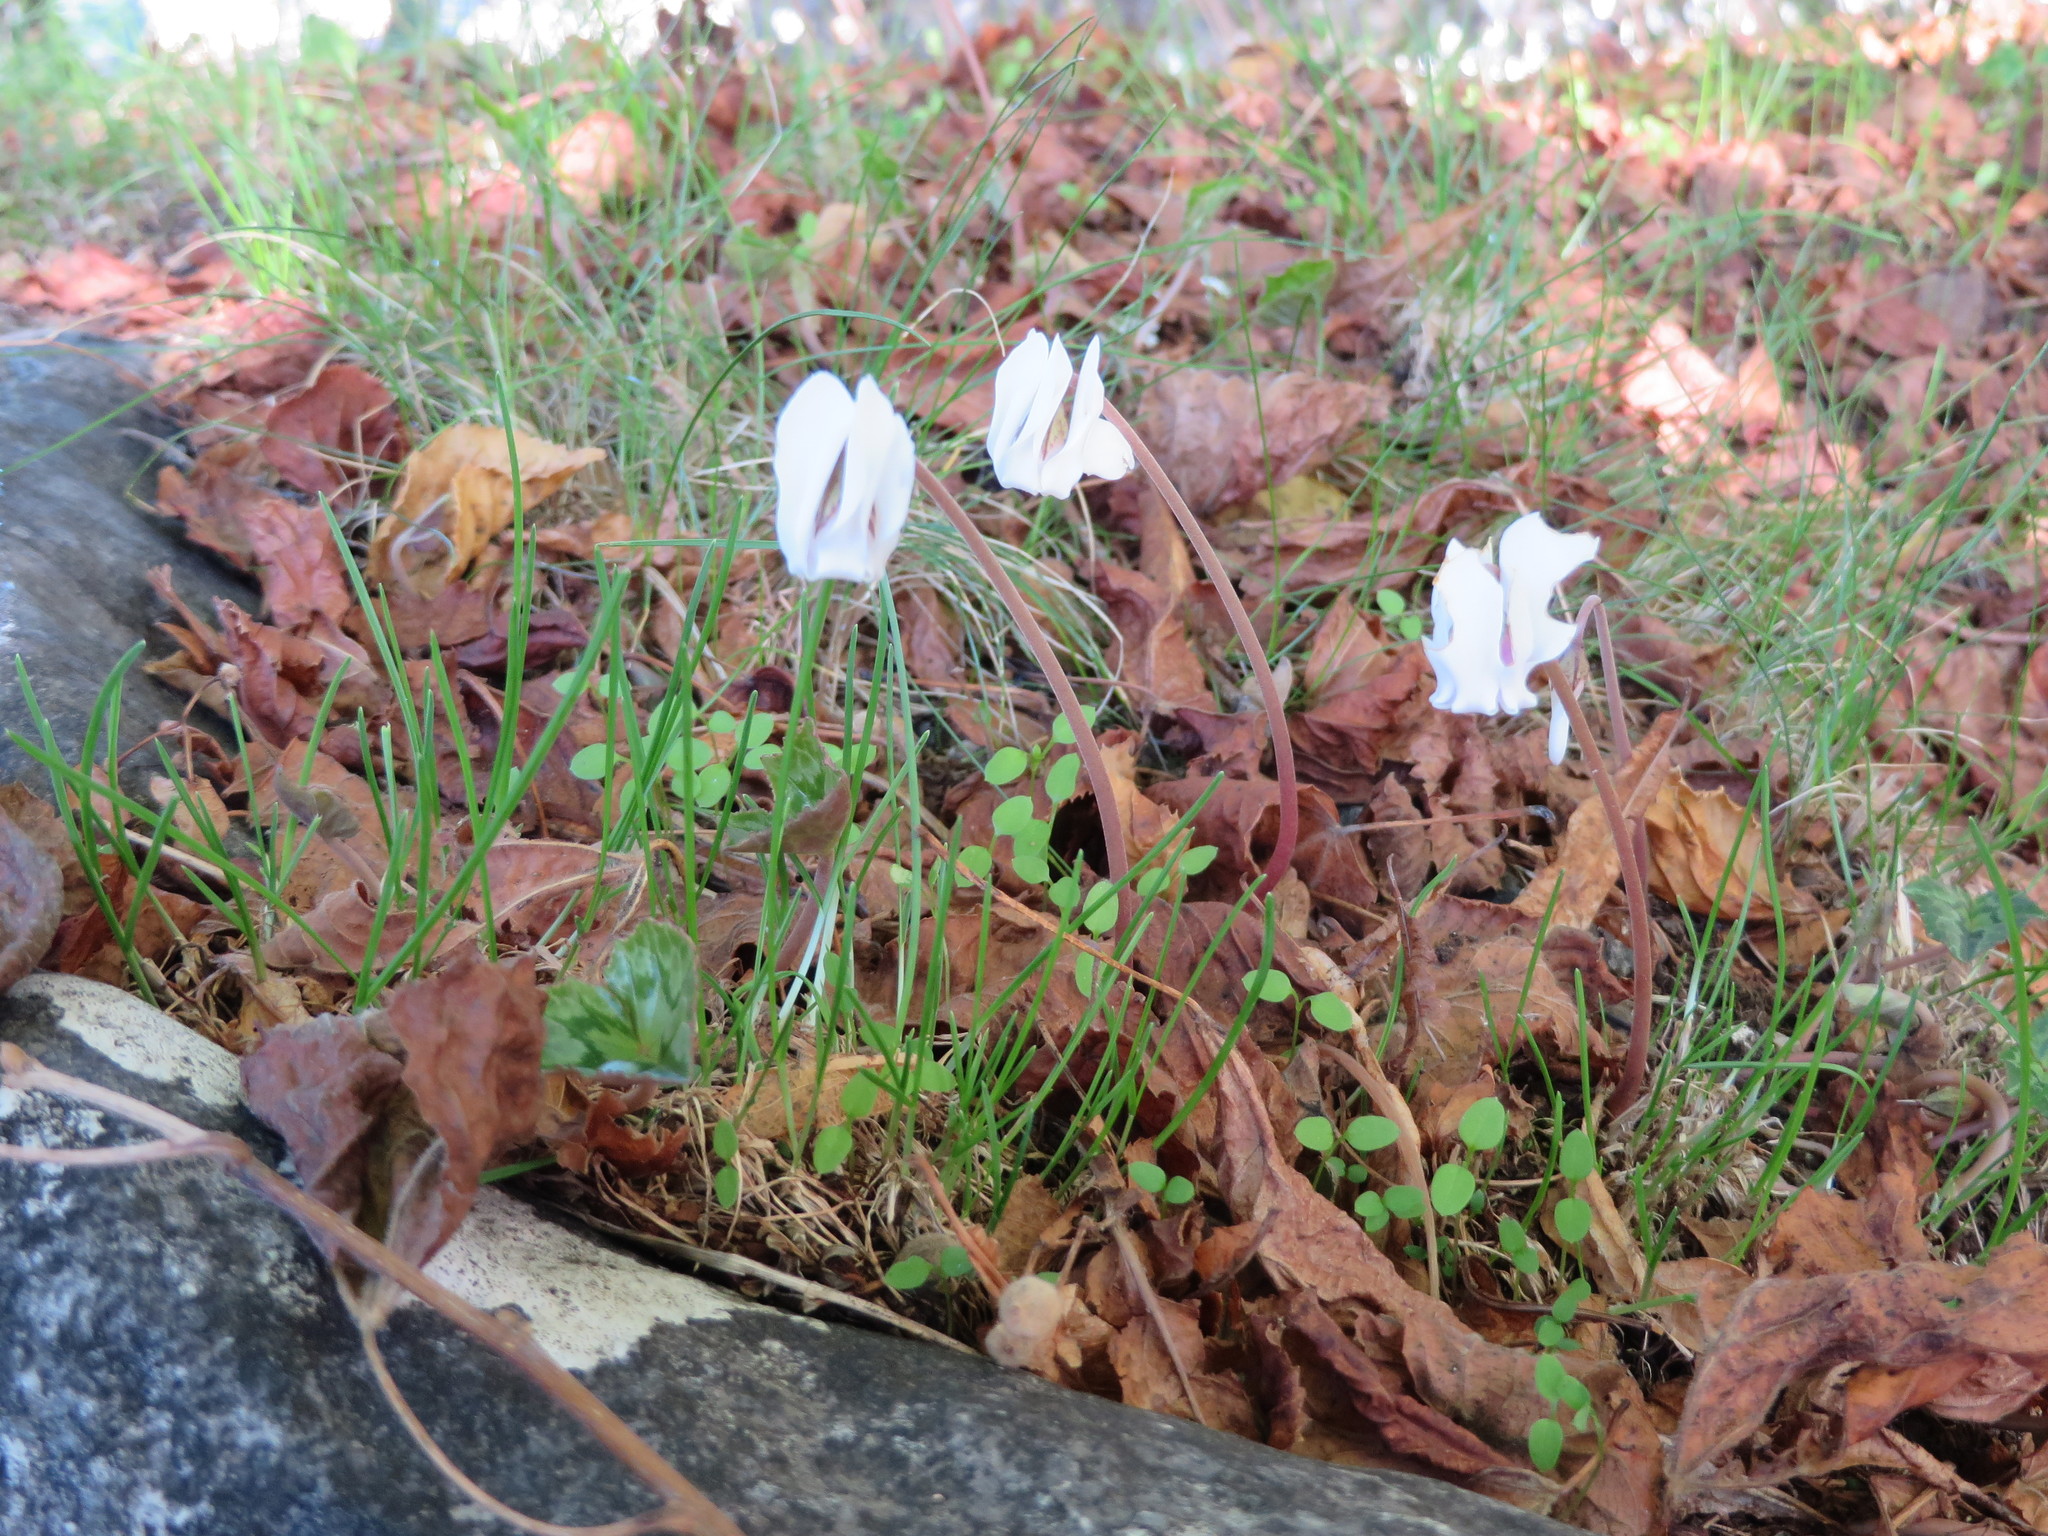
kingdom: Plantae
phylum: Tracheophyta
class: Magnoliopsida
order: Ericales
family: Primulaceae
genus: Cyclamen
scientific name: Cyclamen hederifolium
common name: Sowbread
